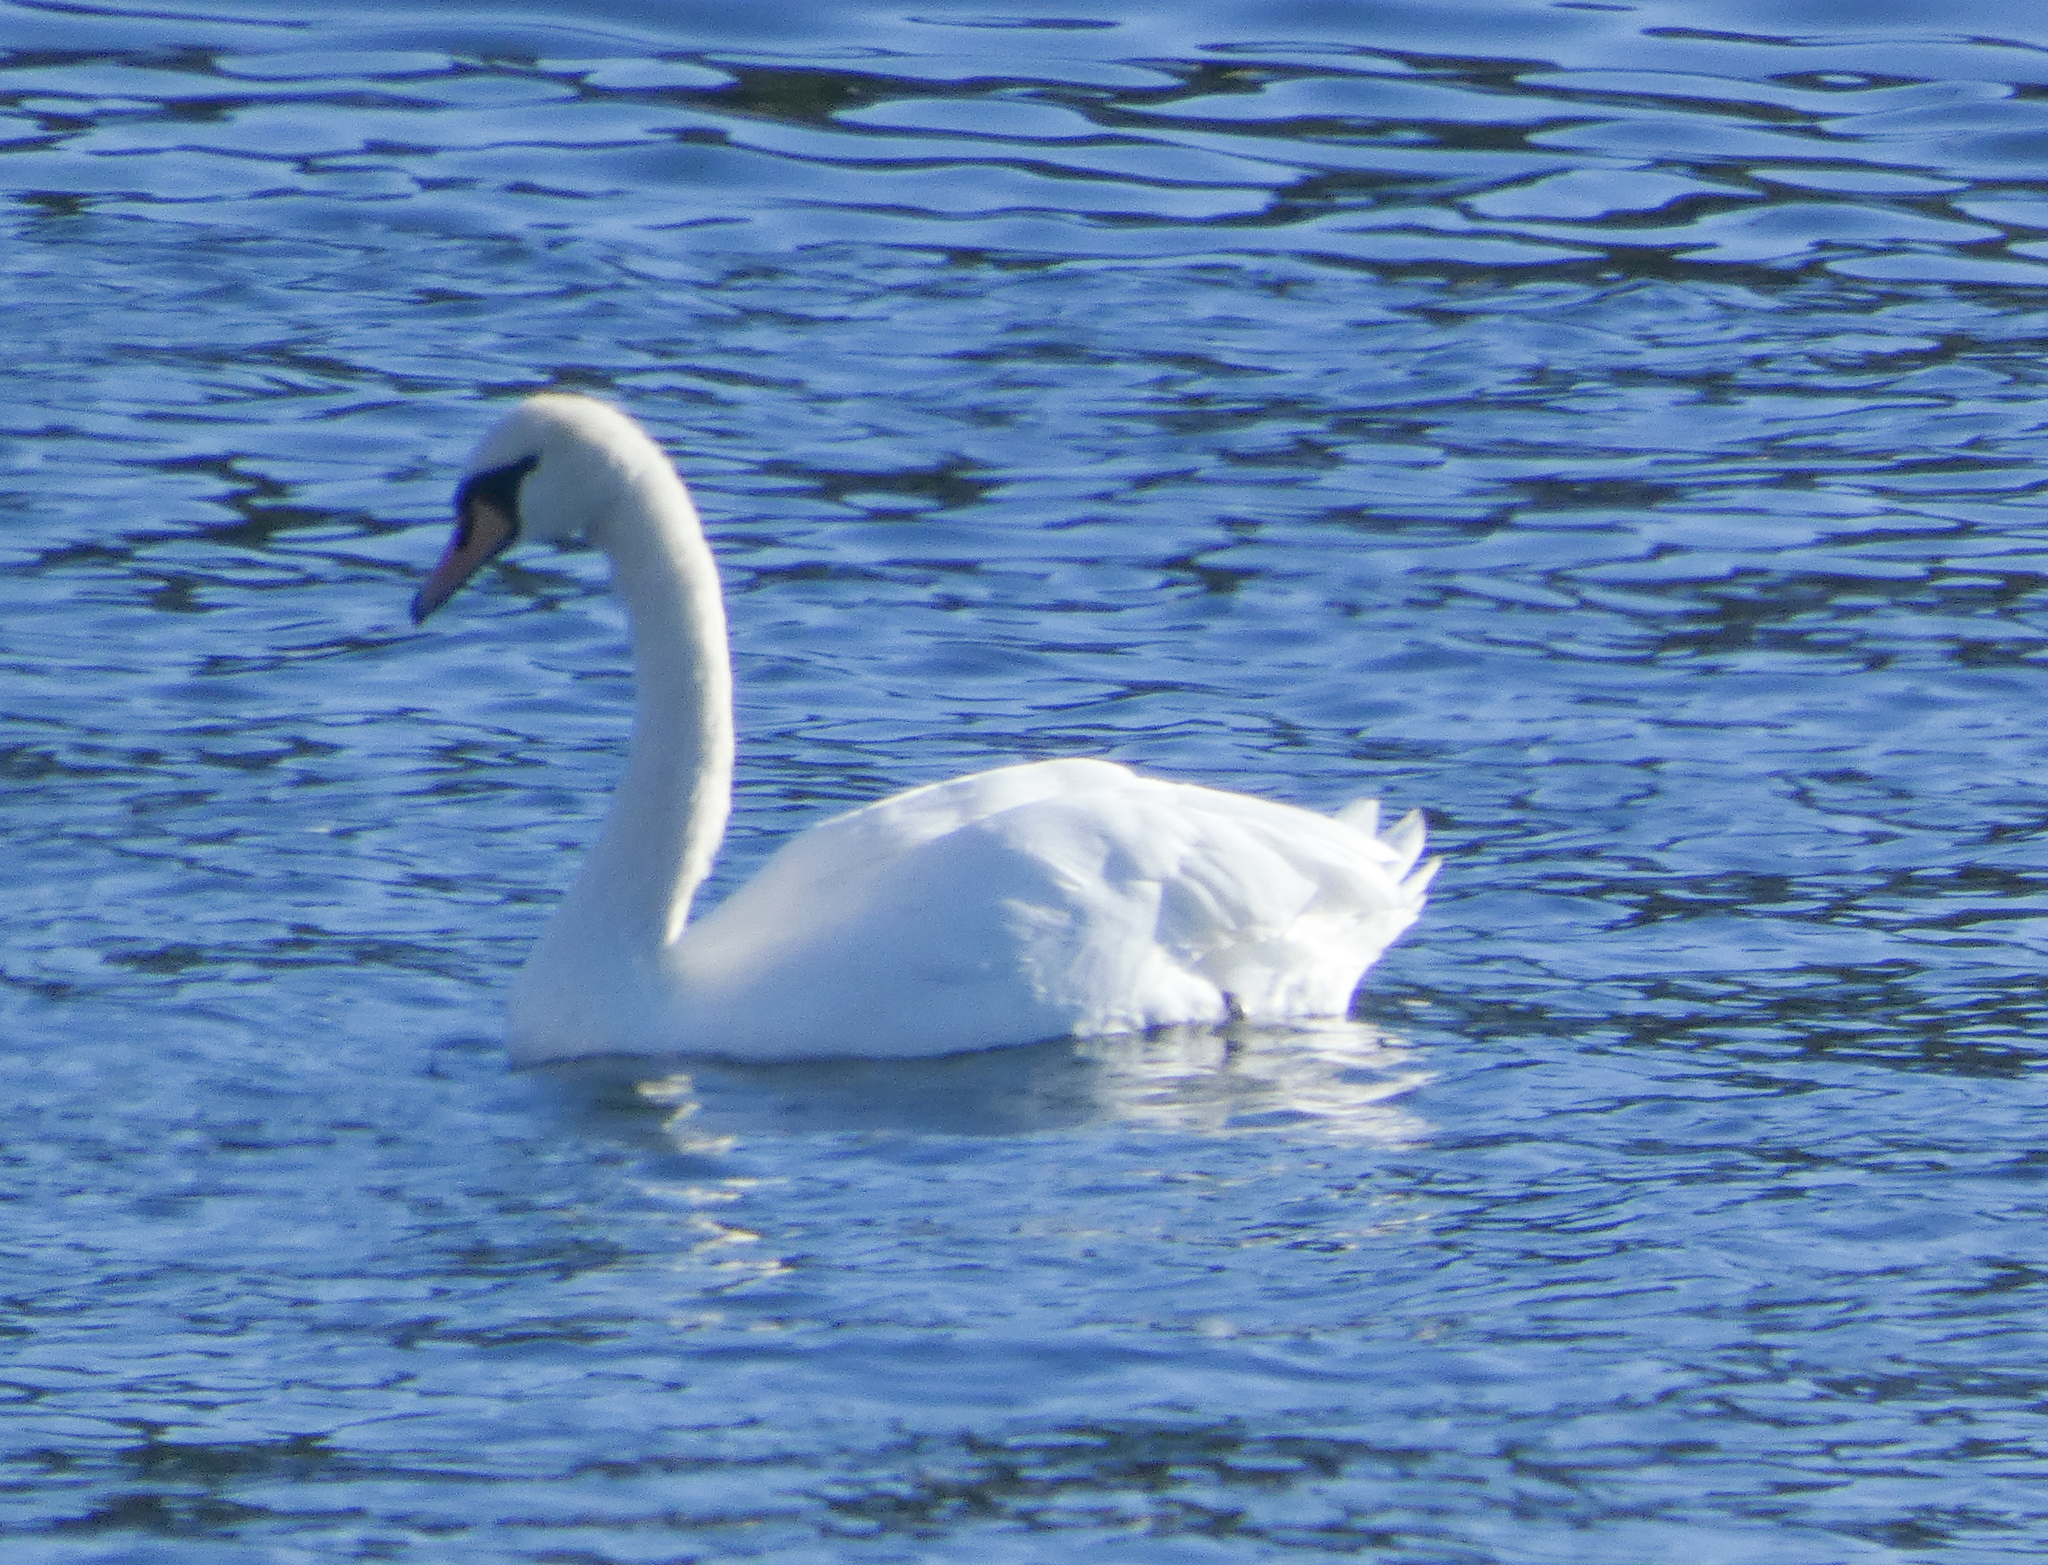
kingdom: Animalia
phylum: Chordata
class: Aves
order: Anseriformes
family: Anatidae
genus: Cygnus
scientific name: Cygnus olor
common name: Mute swan
